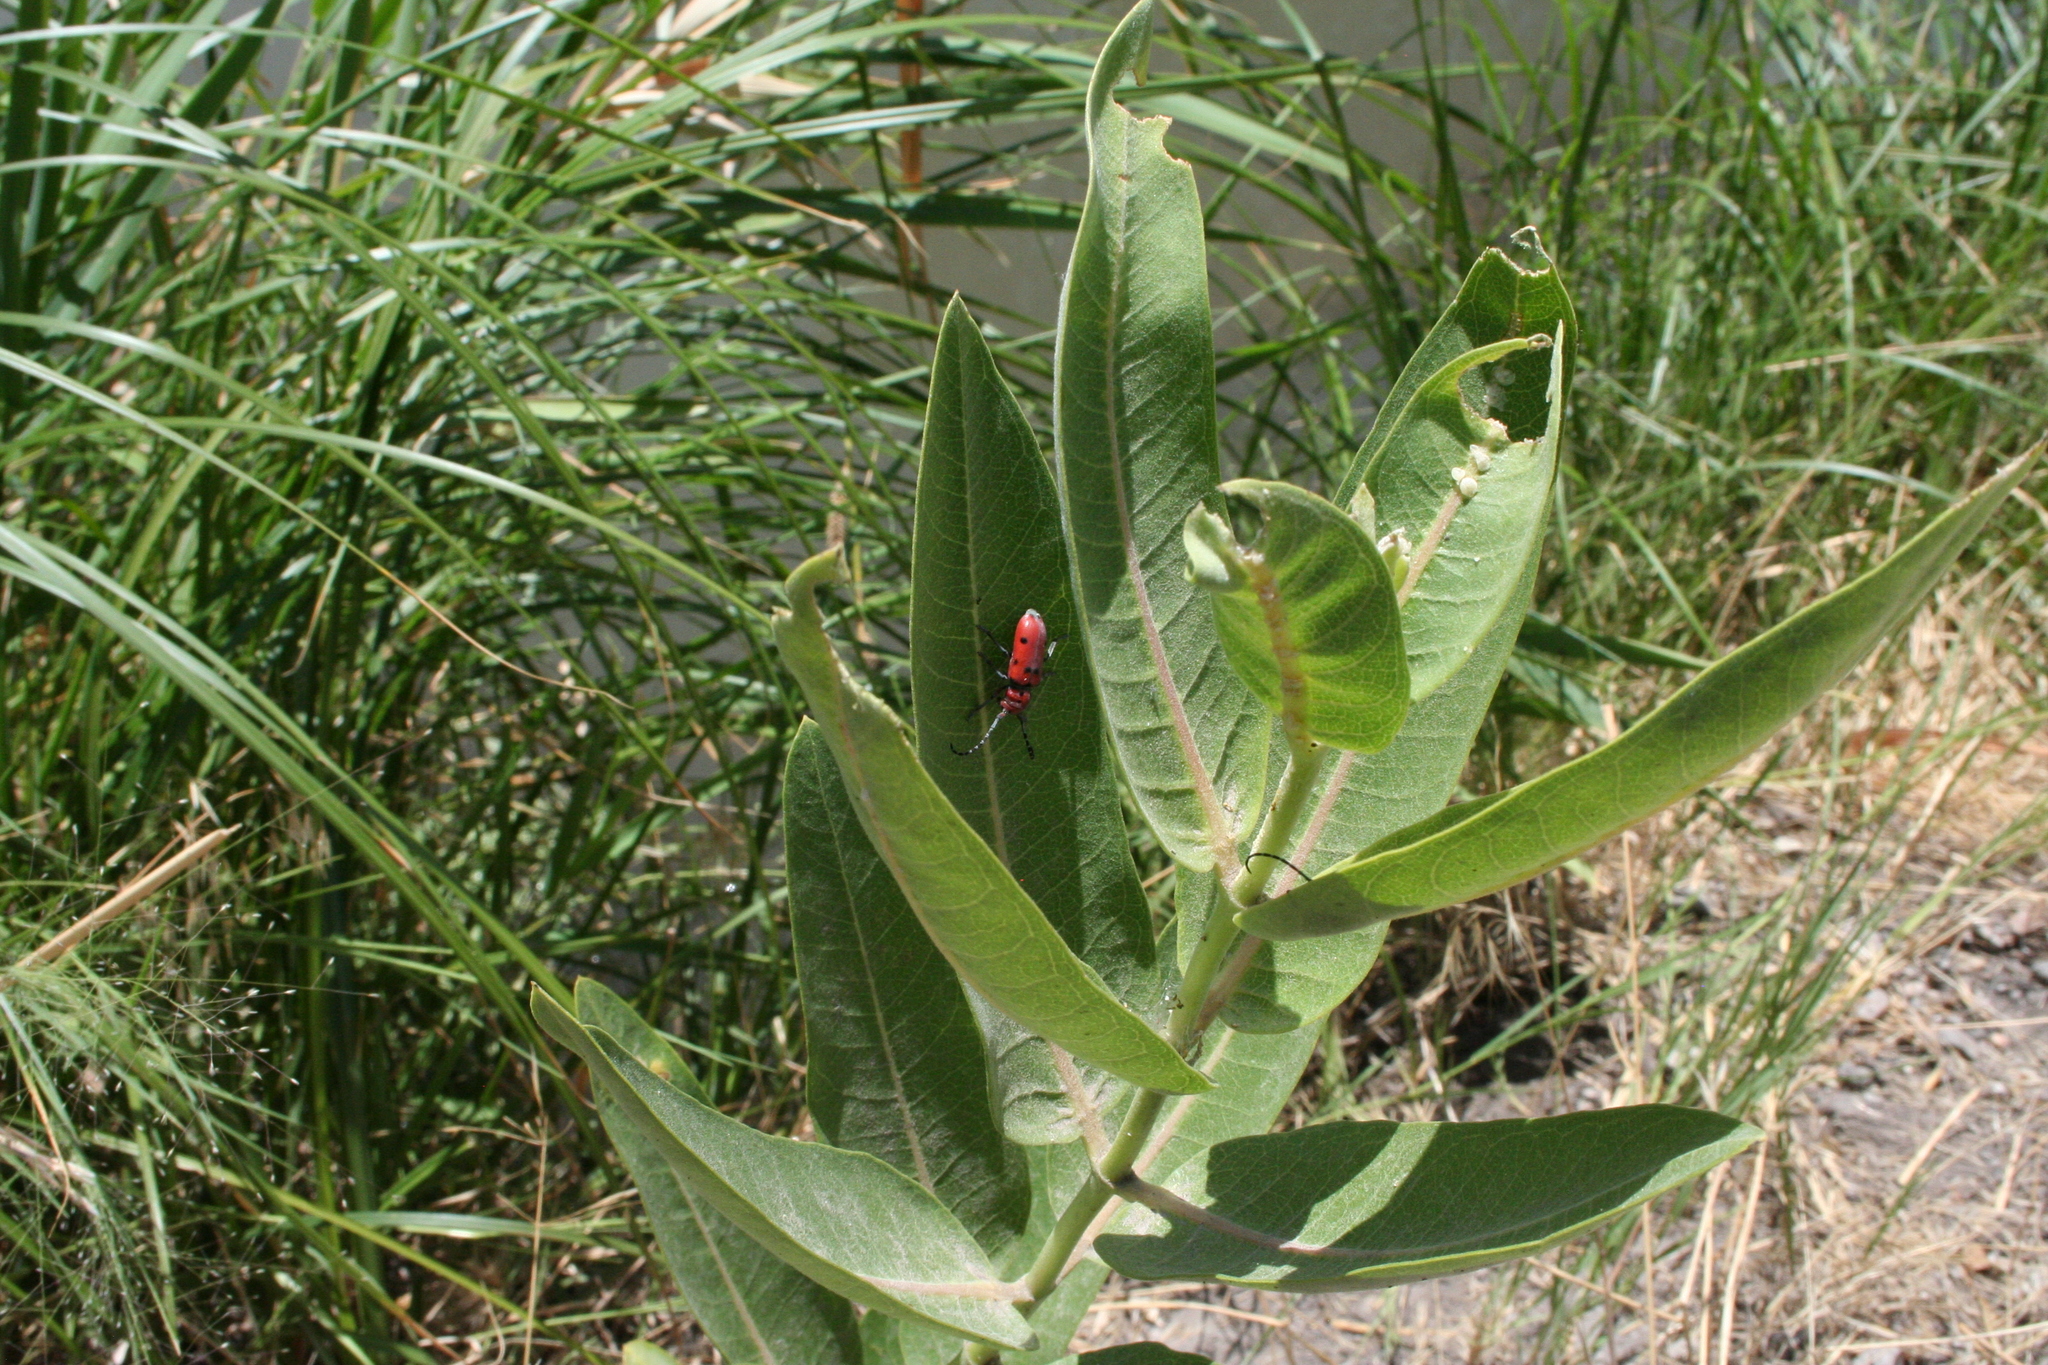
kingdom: Animalia
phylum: Arthropoda
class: Insecta
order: Coleoptera
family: Cerambycidae
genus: Tetraopes
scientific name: Tetraopes femoratus
